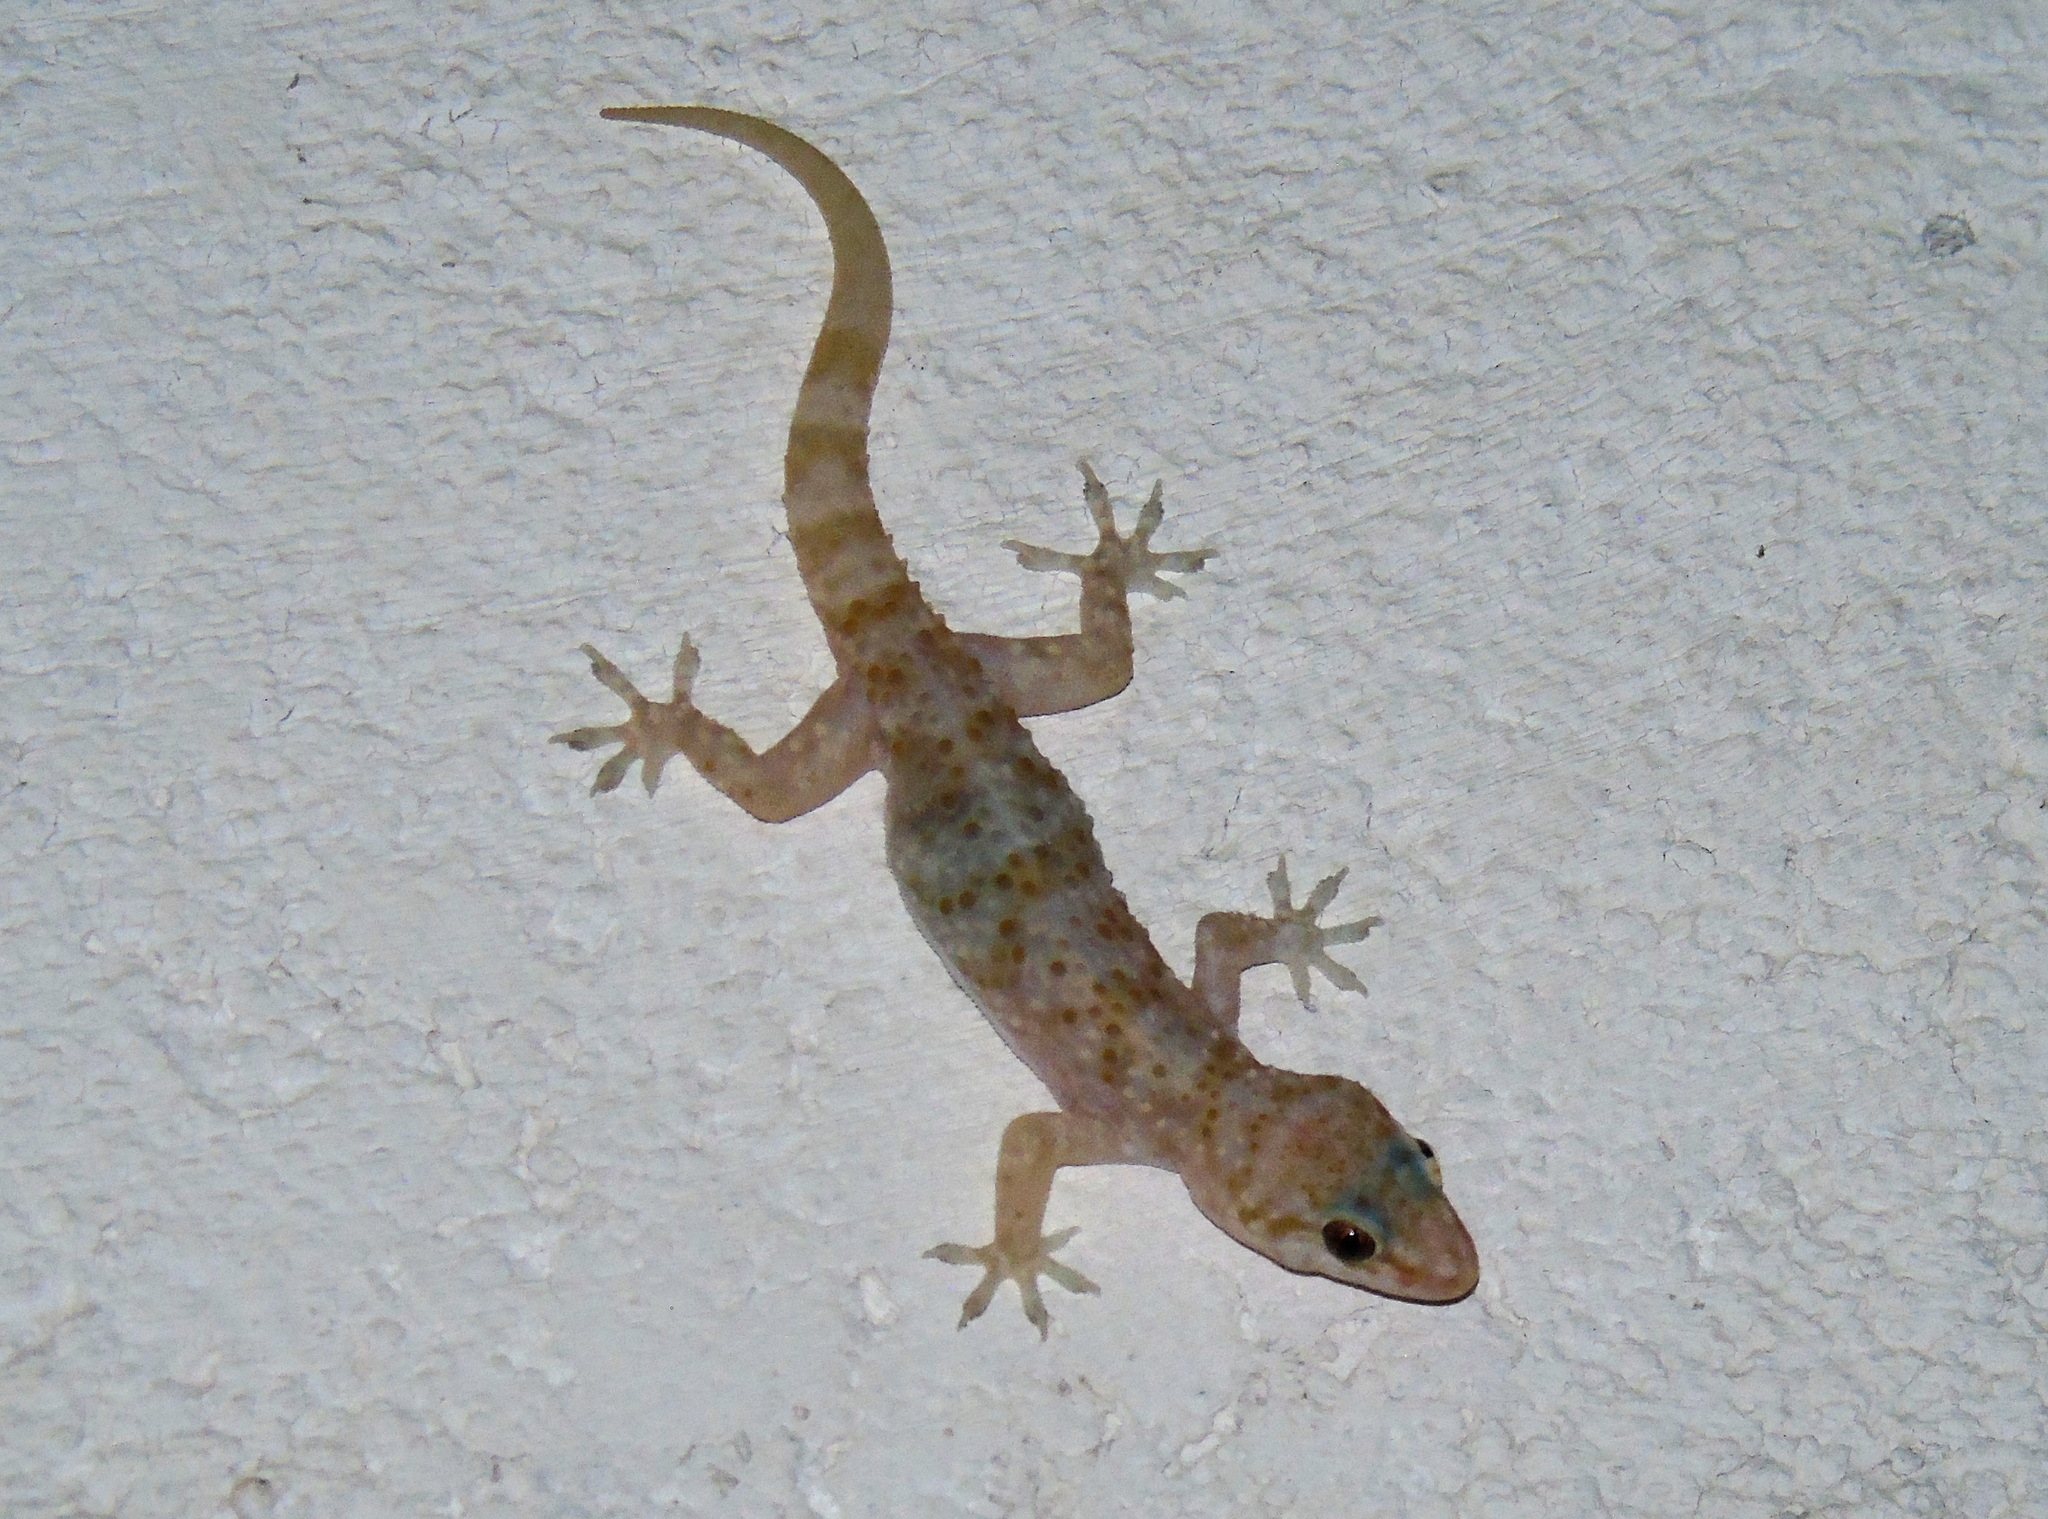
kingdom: Animalia
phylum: Chordata
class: Squamata
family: Gekkonidae
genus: Hemidactylus
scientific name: Hemidactylus turcicus
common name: Turkish gecko
